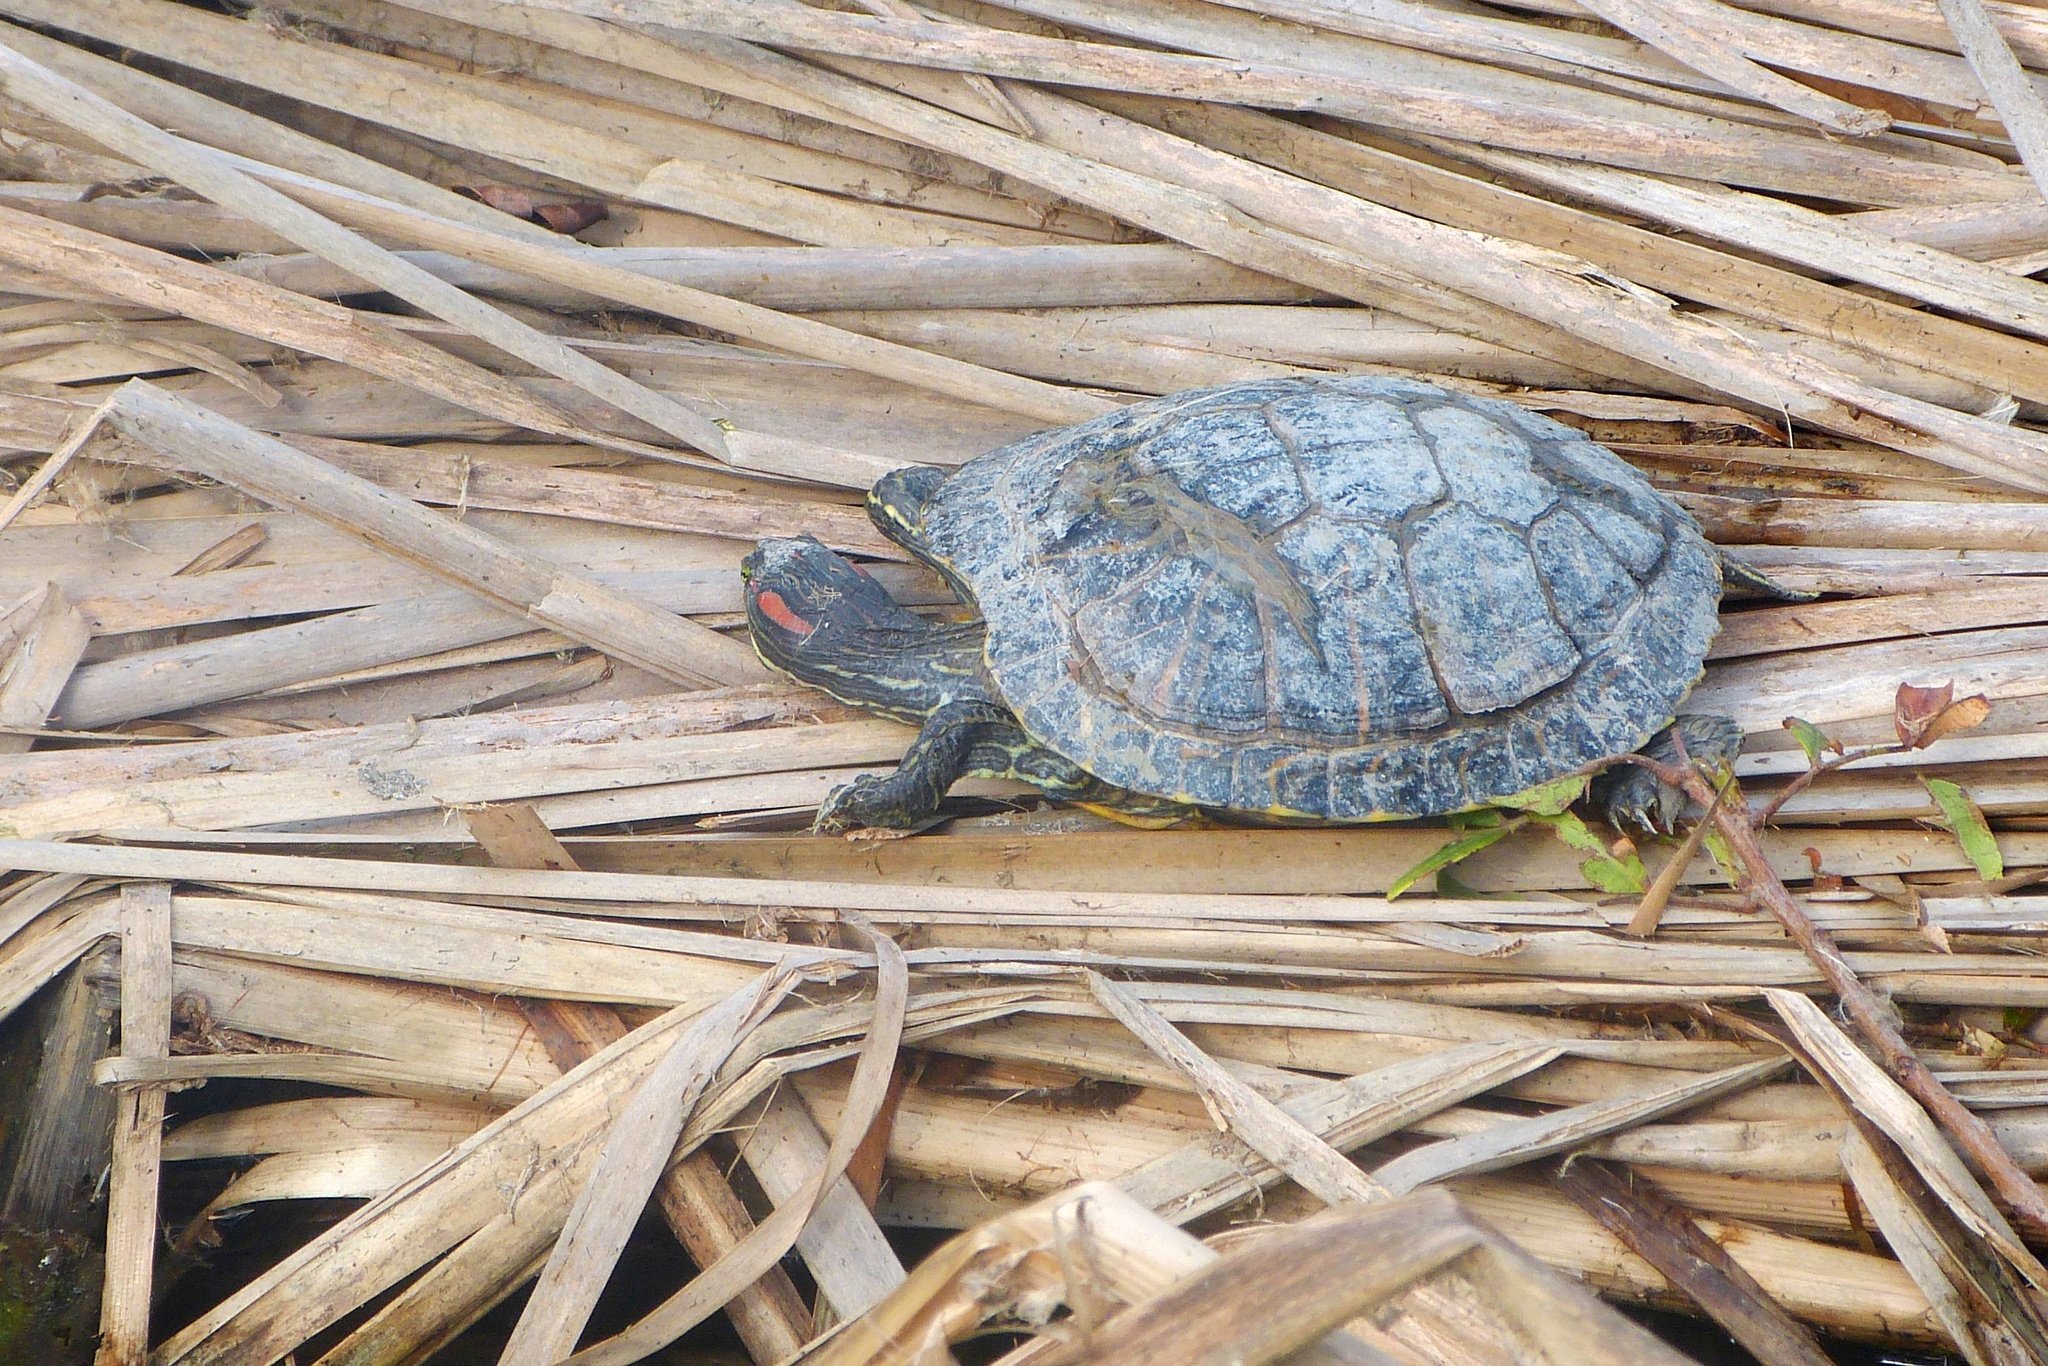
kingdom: Animalia
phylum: Chordata
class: Testudines
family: Emydidae
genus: Trachemys
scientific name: Trachemys scripta
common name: Slider
